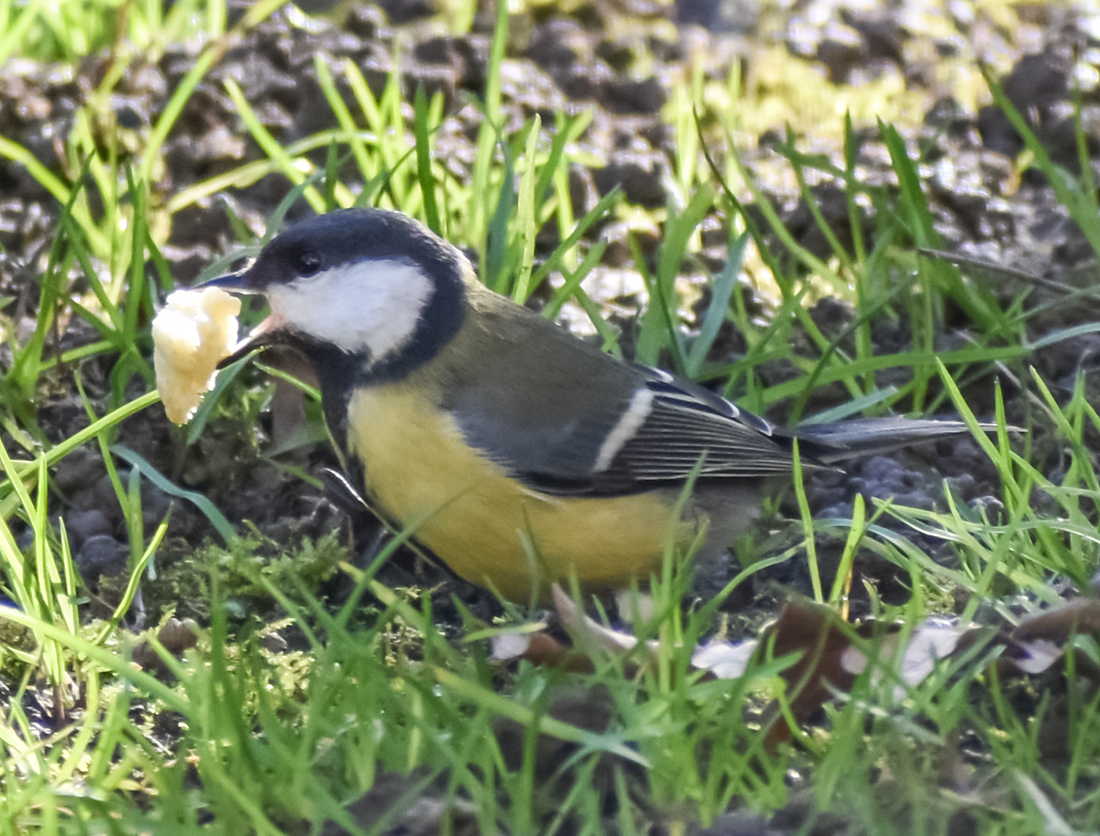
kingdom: Animalia
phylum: Chordata
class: Aves
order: Passeriformes
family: Paridae
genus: Parus
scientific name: Parus major
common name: Great tit
